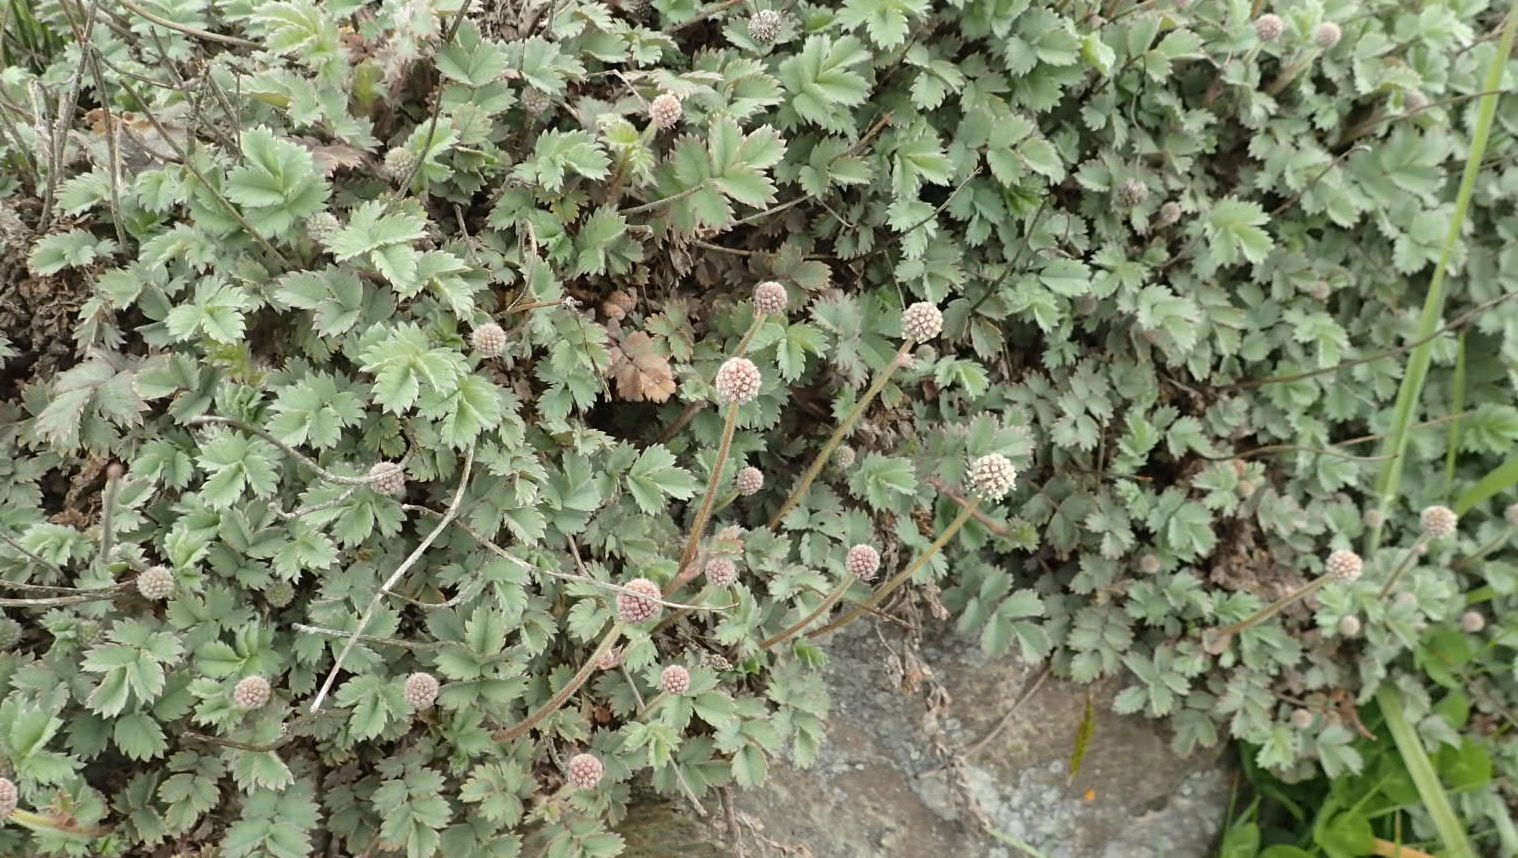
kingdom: Plantae
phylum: Tracheophyta
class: Magnoliopsida
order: Rosales
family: Rosaceae
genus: Acaena
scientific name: Acaena caesiiglauca
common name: Glaucous pirri-pirri-bur
